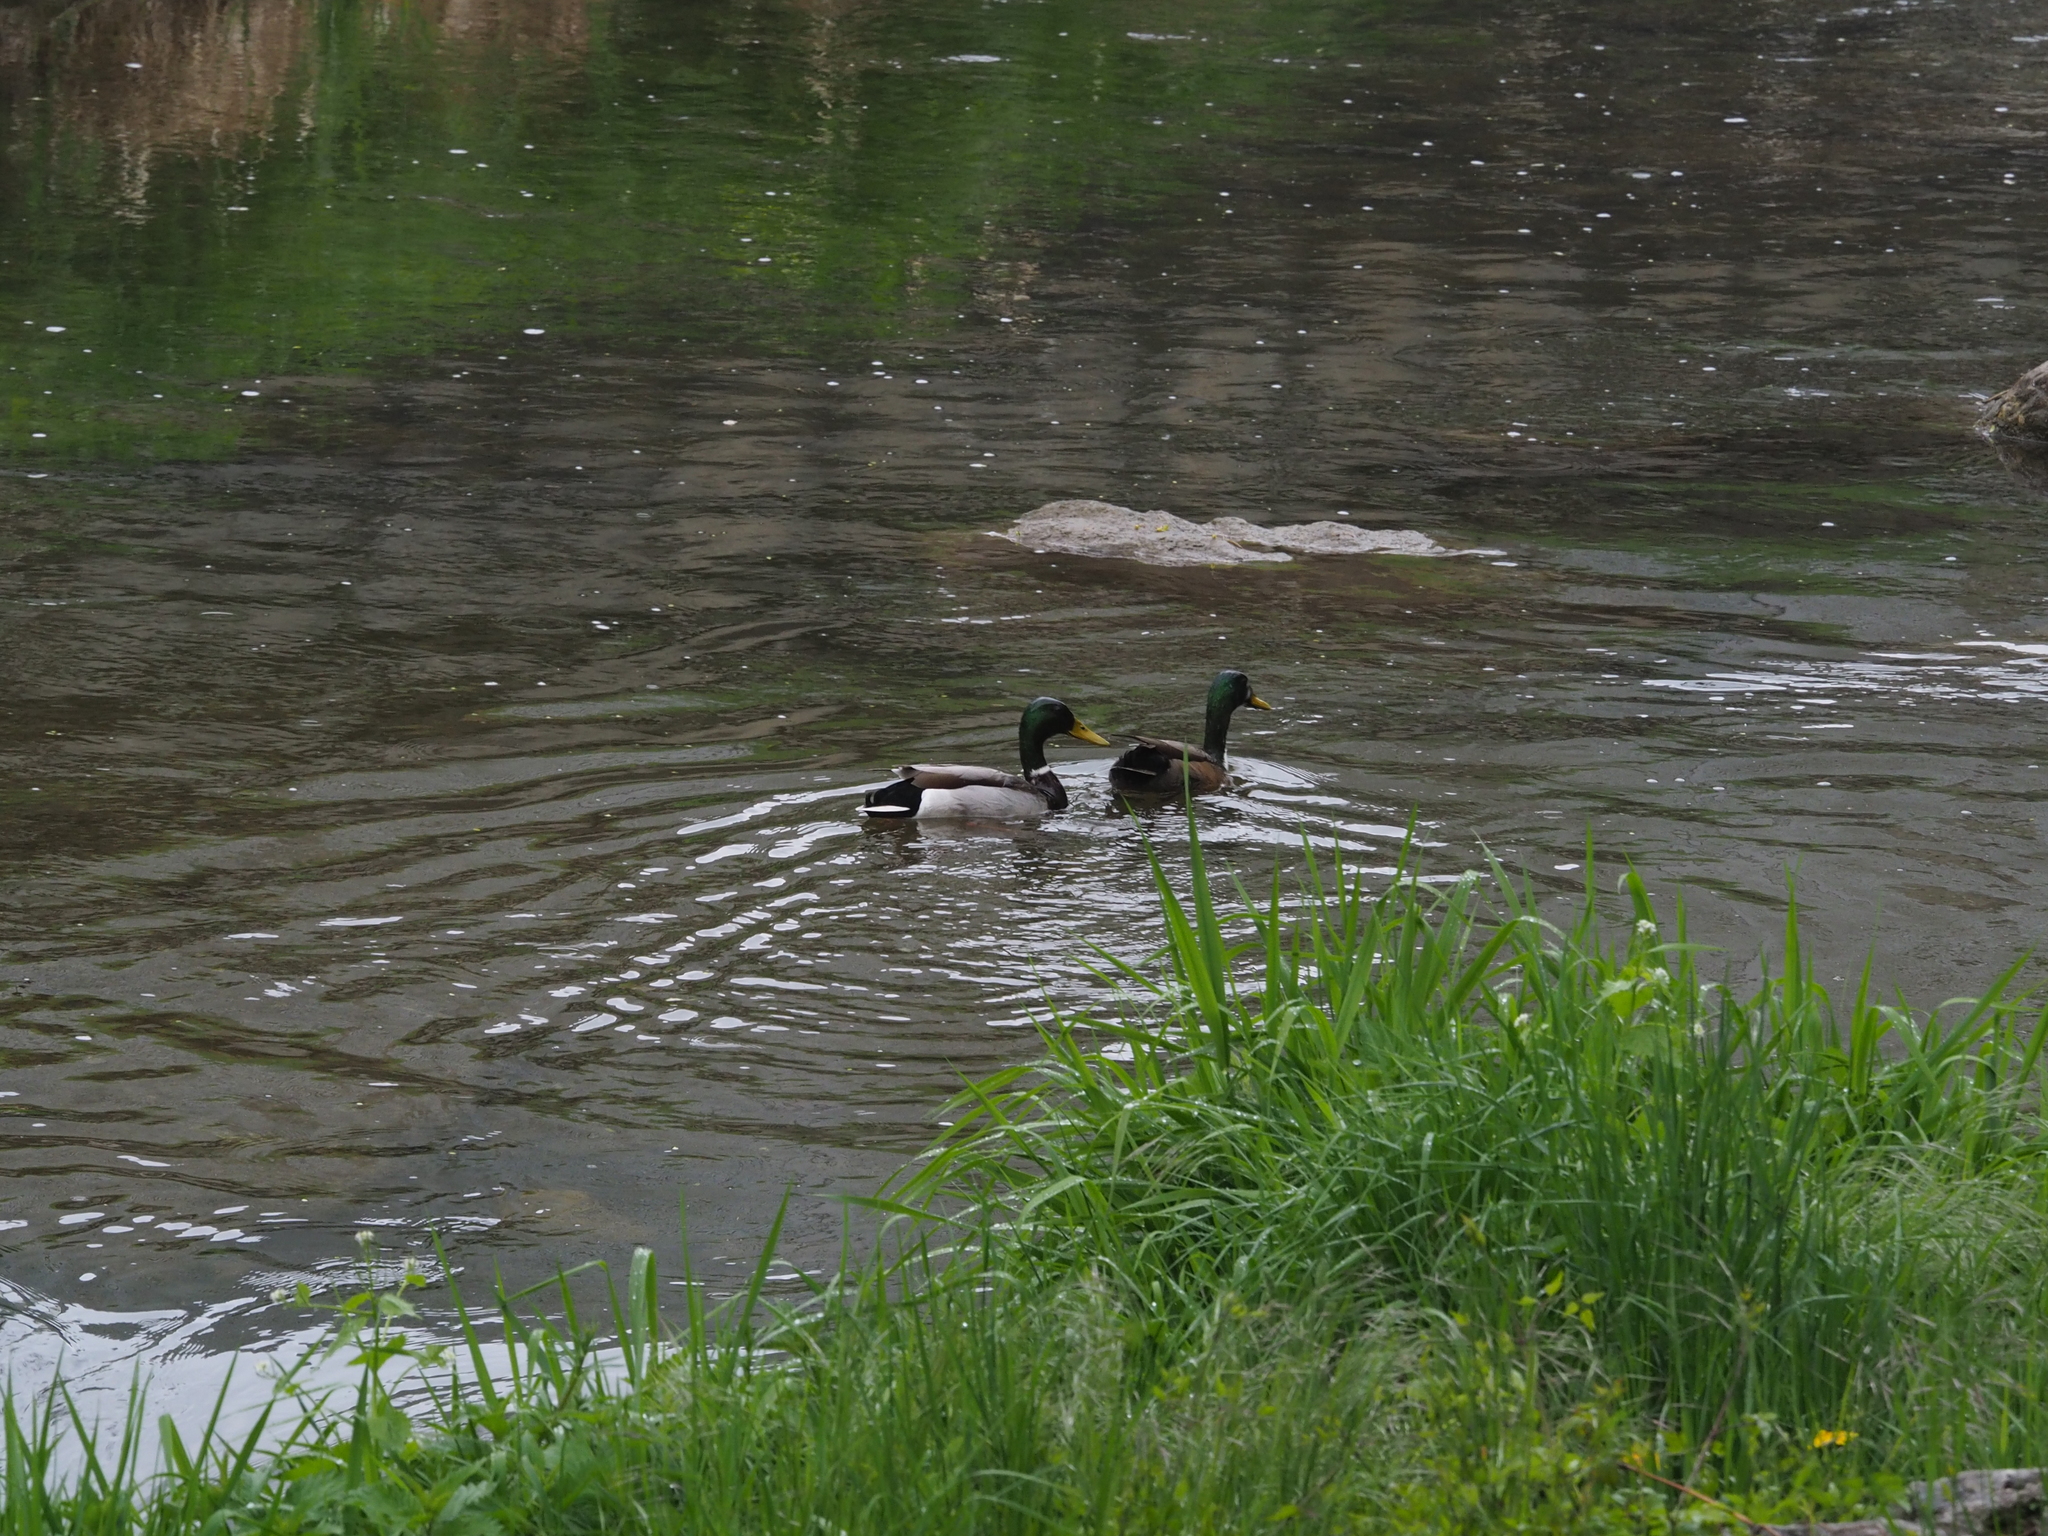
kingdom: Animalia
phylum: Chordata
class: Aves
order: Anseriformes
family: Anatidae
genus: Anas
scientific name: Anas platyrhynchos
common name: Mallard
